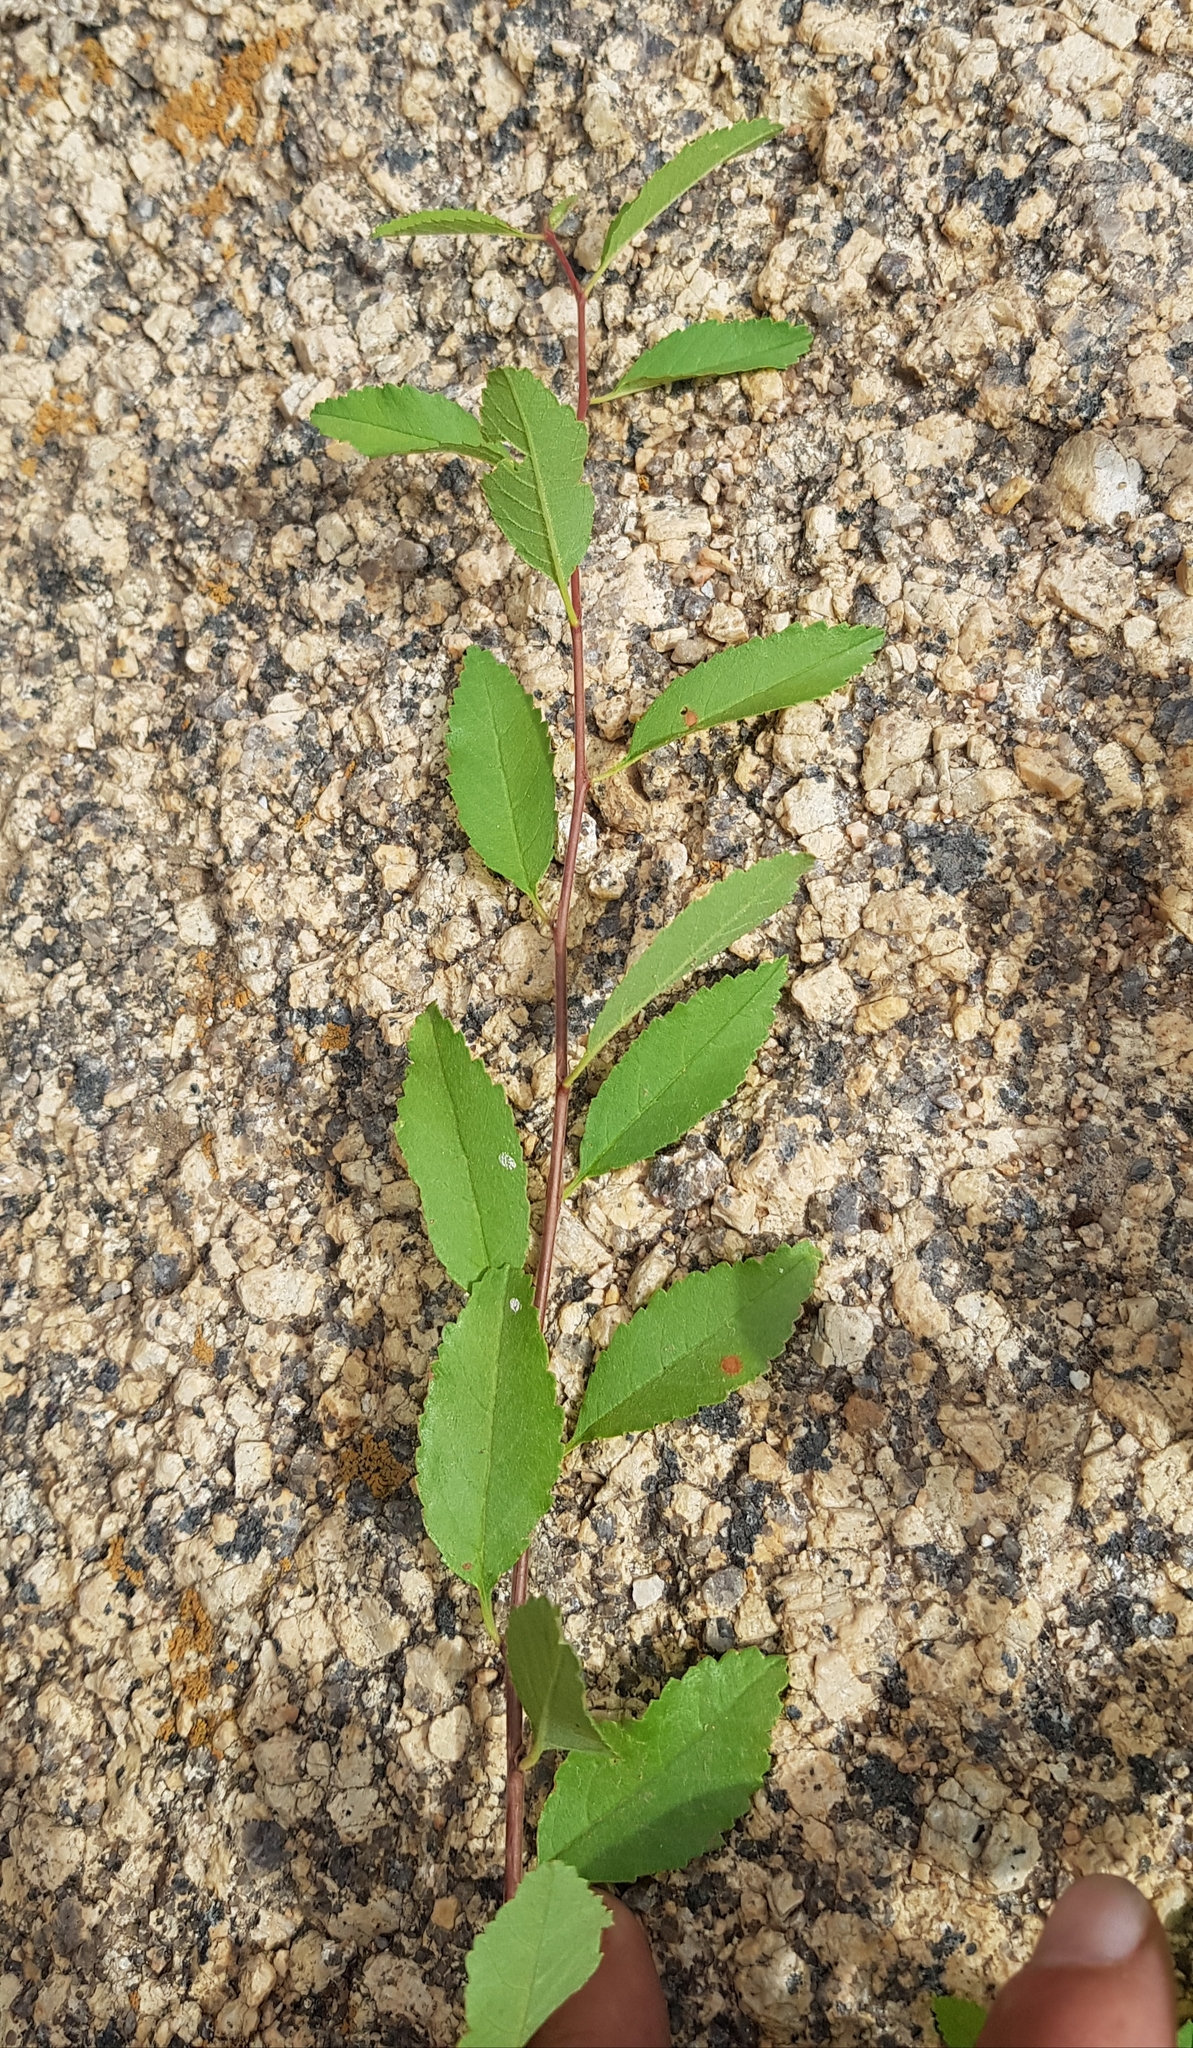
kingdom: Plantae
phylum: Tracheophyta
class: Magnoliopsida
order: Rosales
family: Ulmaceae
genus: Ulmus
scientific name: Ulmus pumila
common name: Siberian elm
